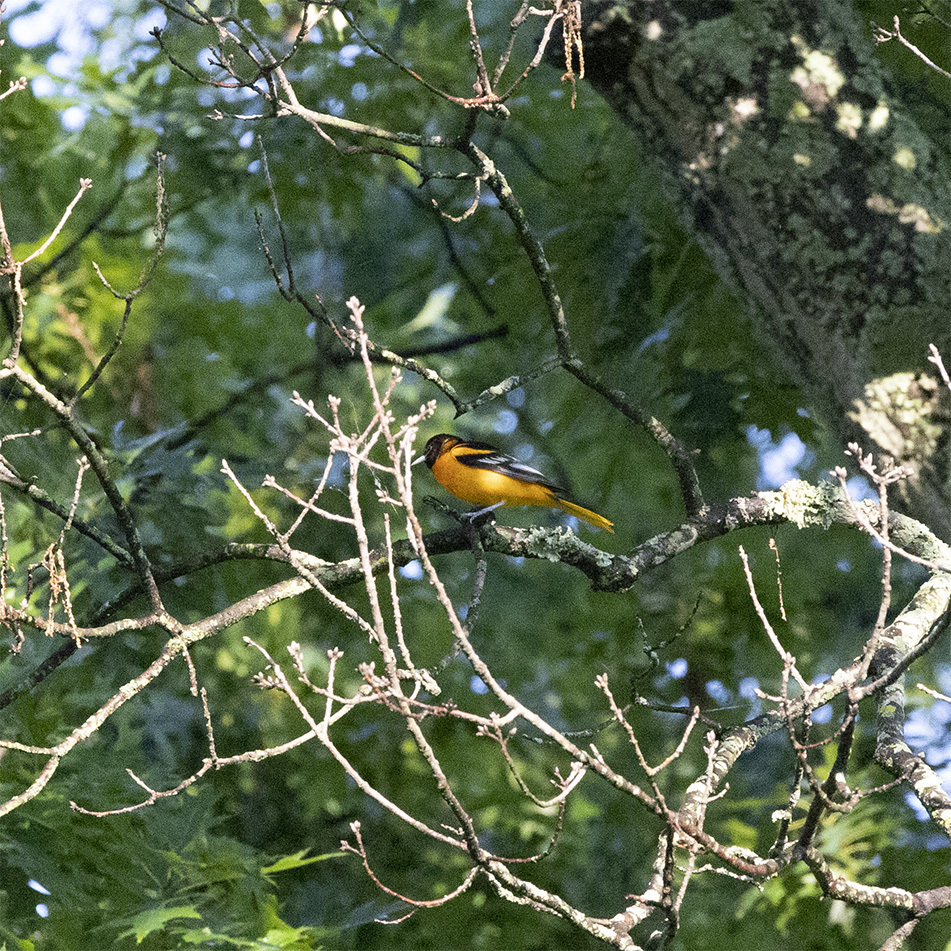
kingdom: Animalia
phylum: Chordata
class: Aves
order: Passeriformes
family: Icteridae
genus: Icterus
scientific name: Icterus galbula
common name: Baltimore oriole
